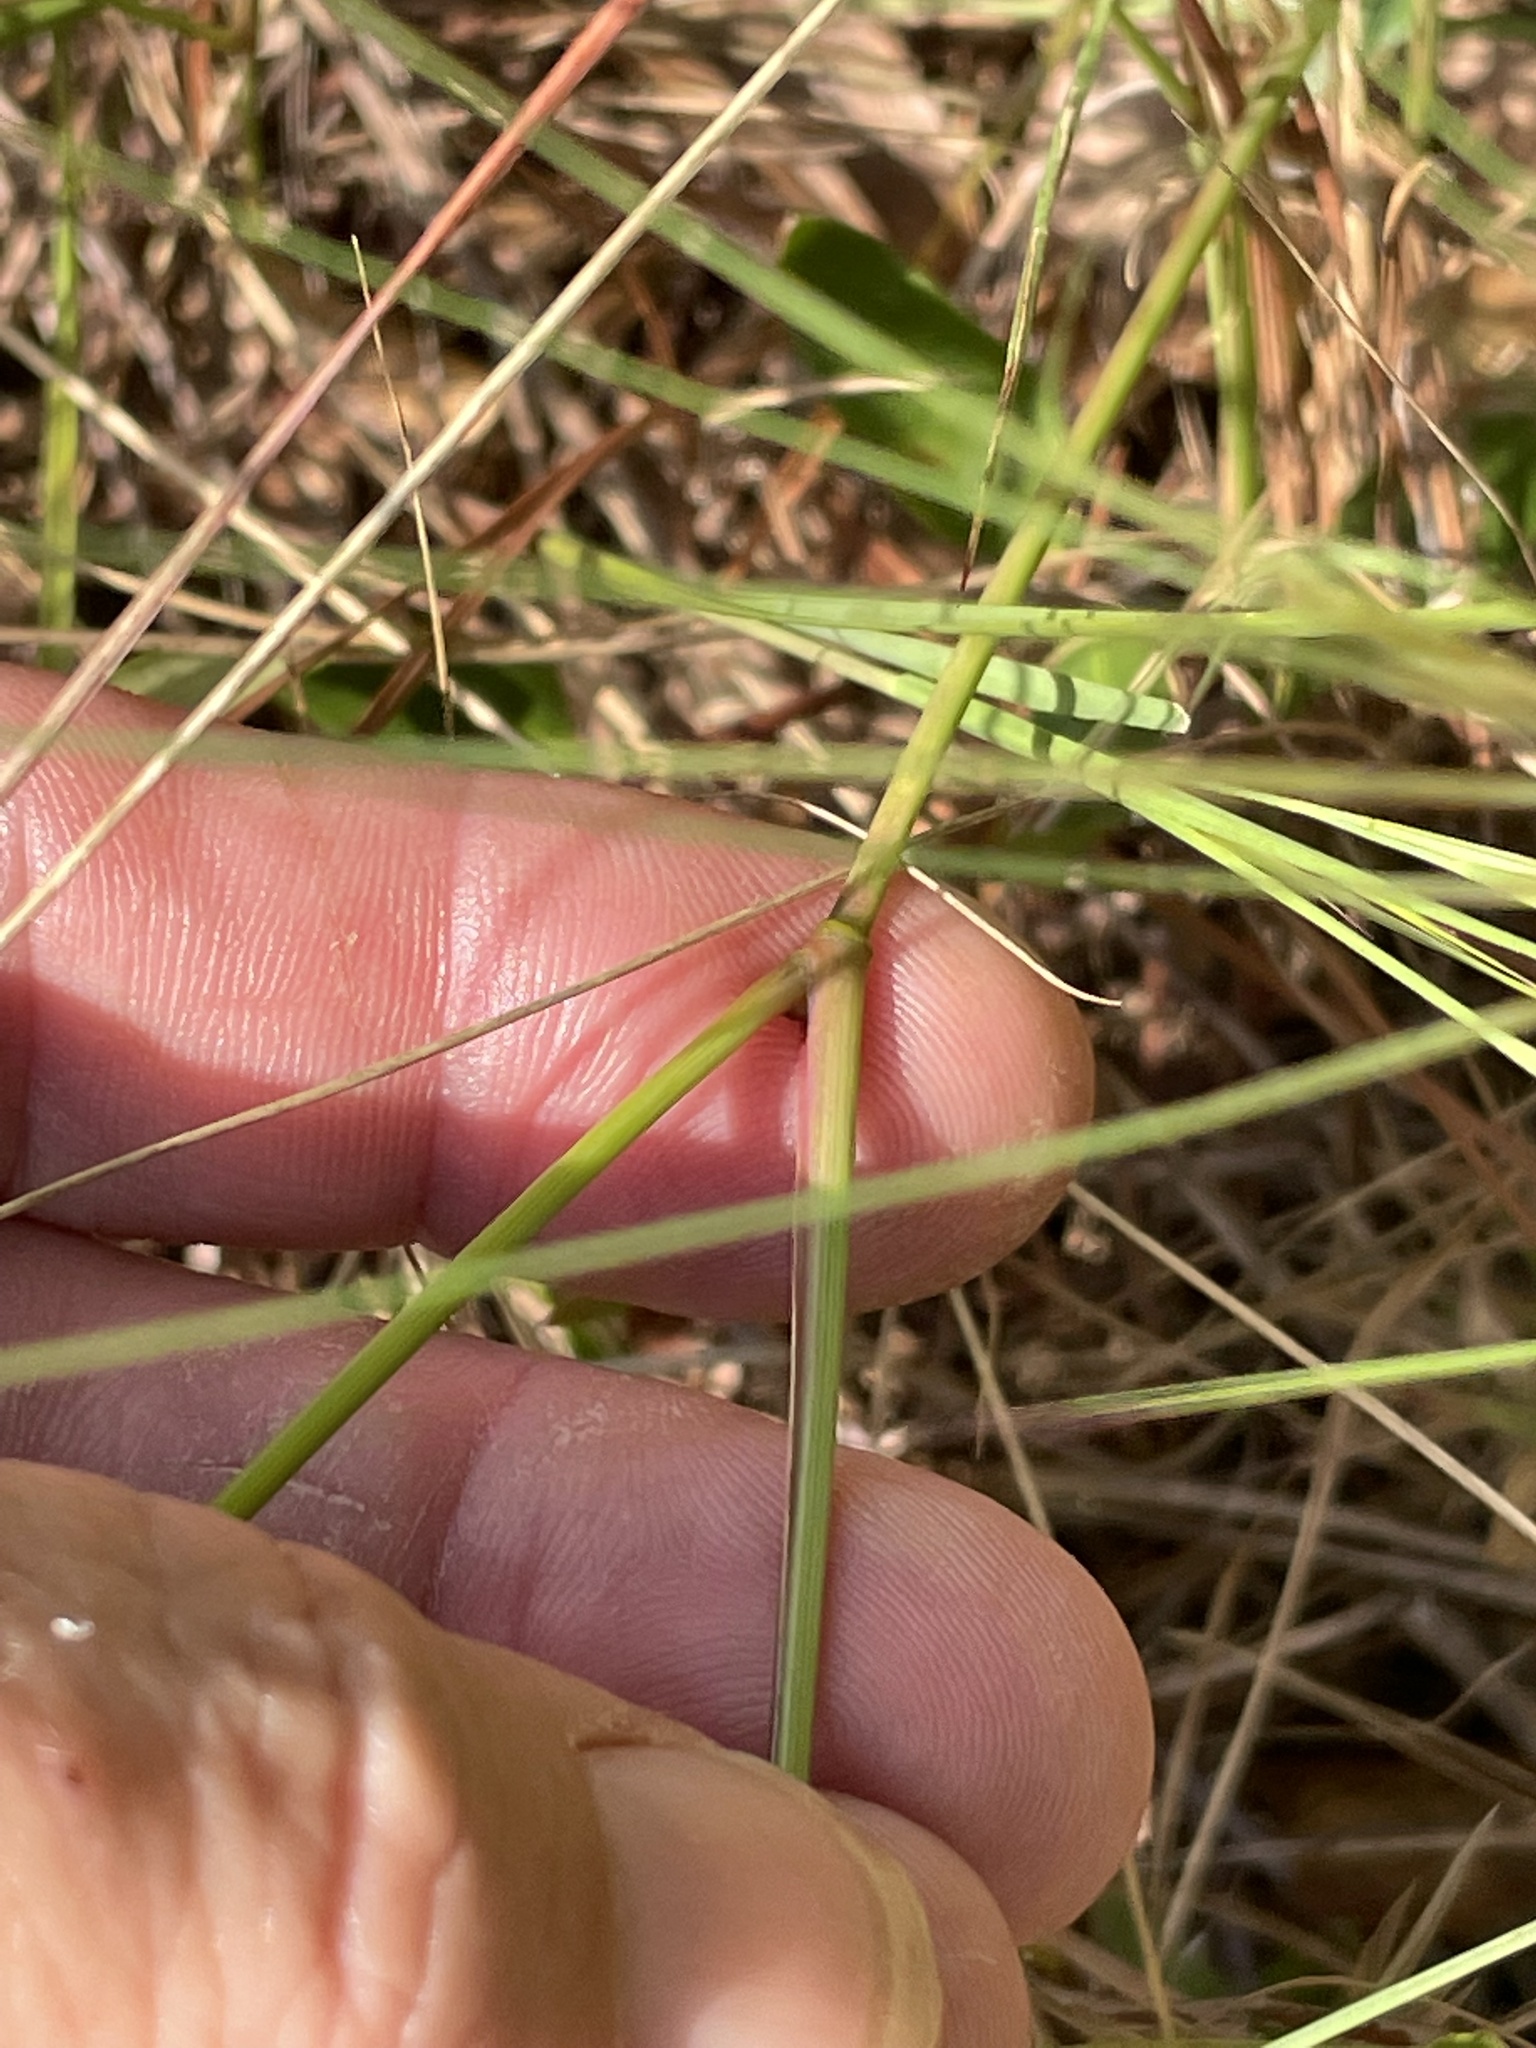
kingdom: Plantae
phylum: Tracheophyta
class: Liliopsida
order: Poales
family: Poaceae
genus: Aristida
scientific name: Aristida tuberculosa
